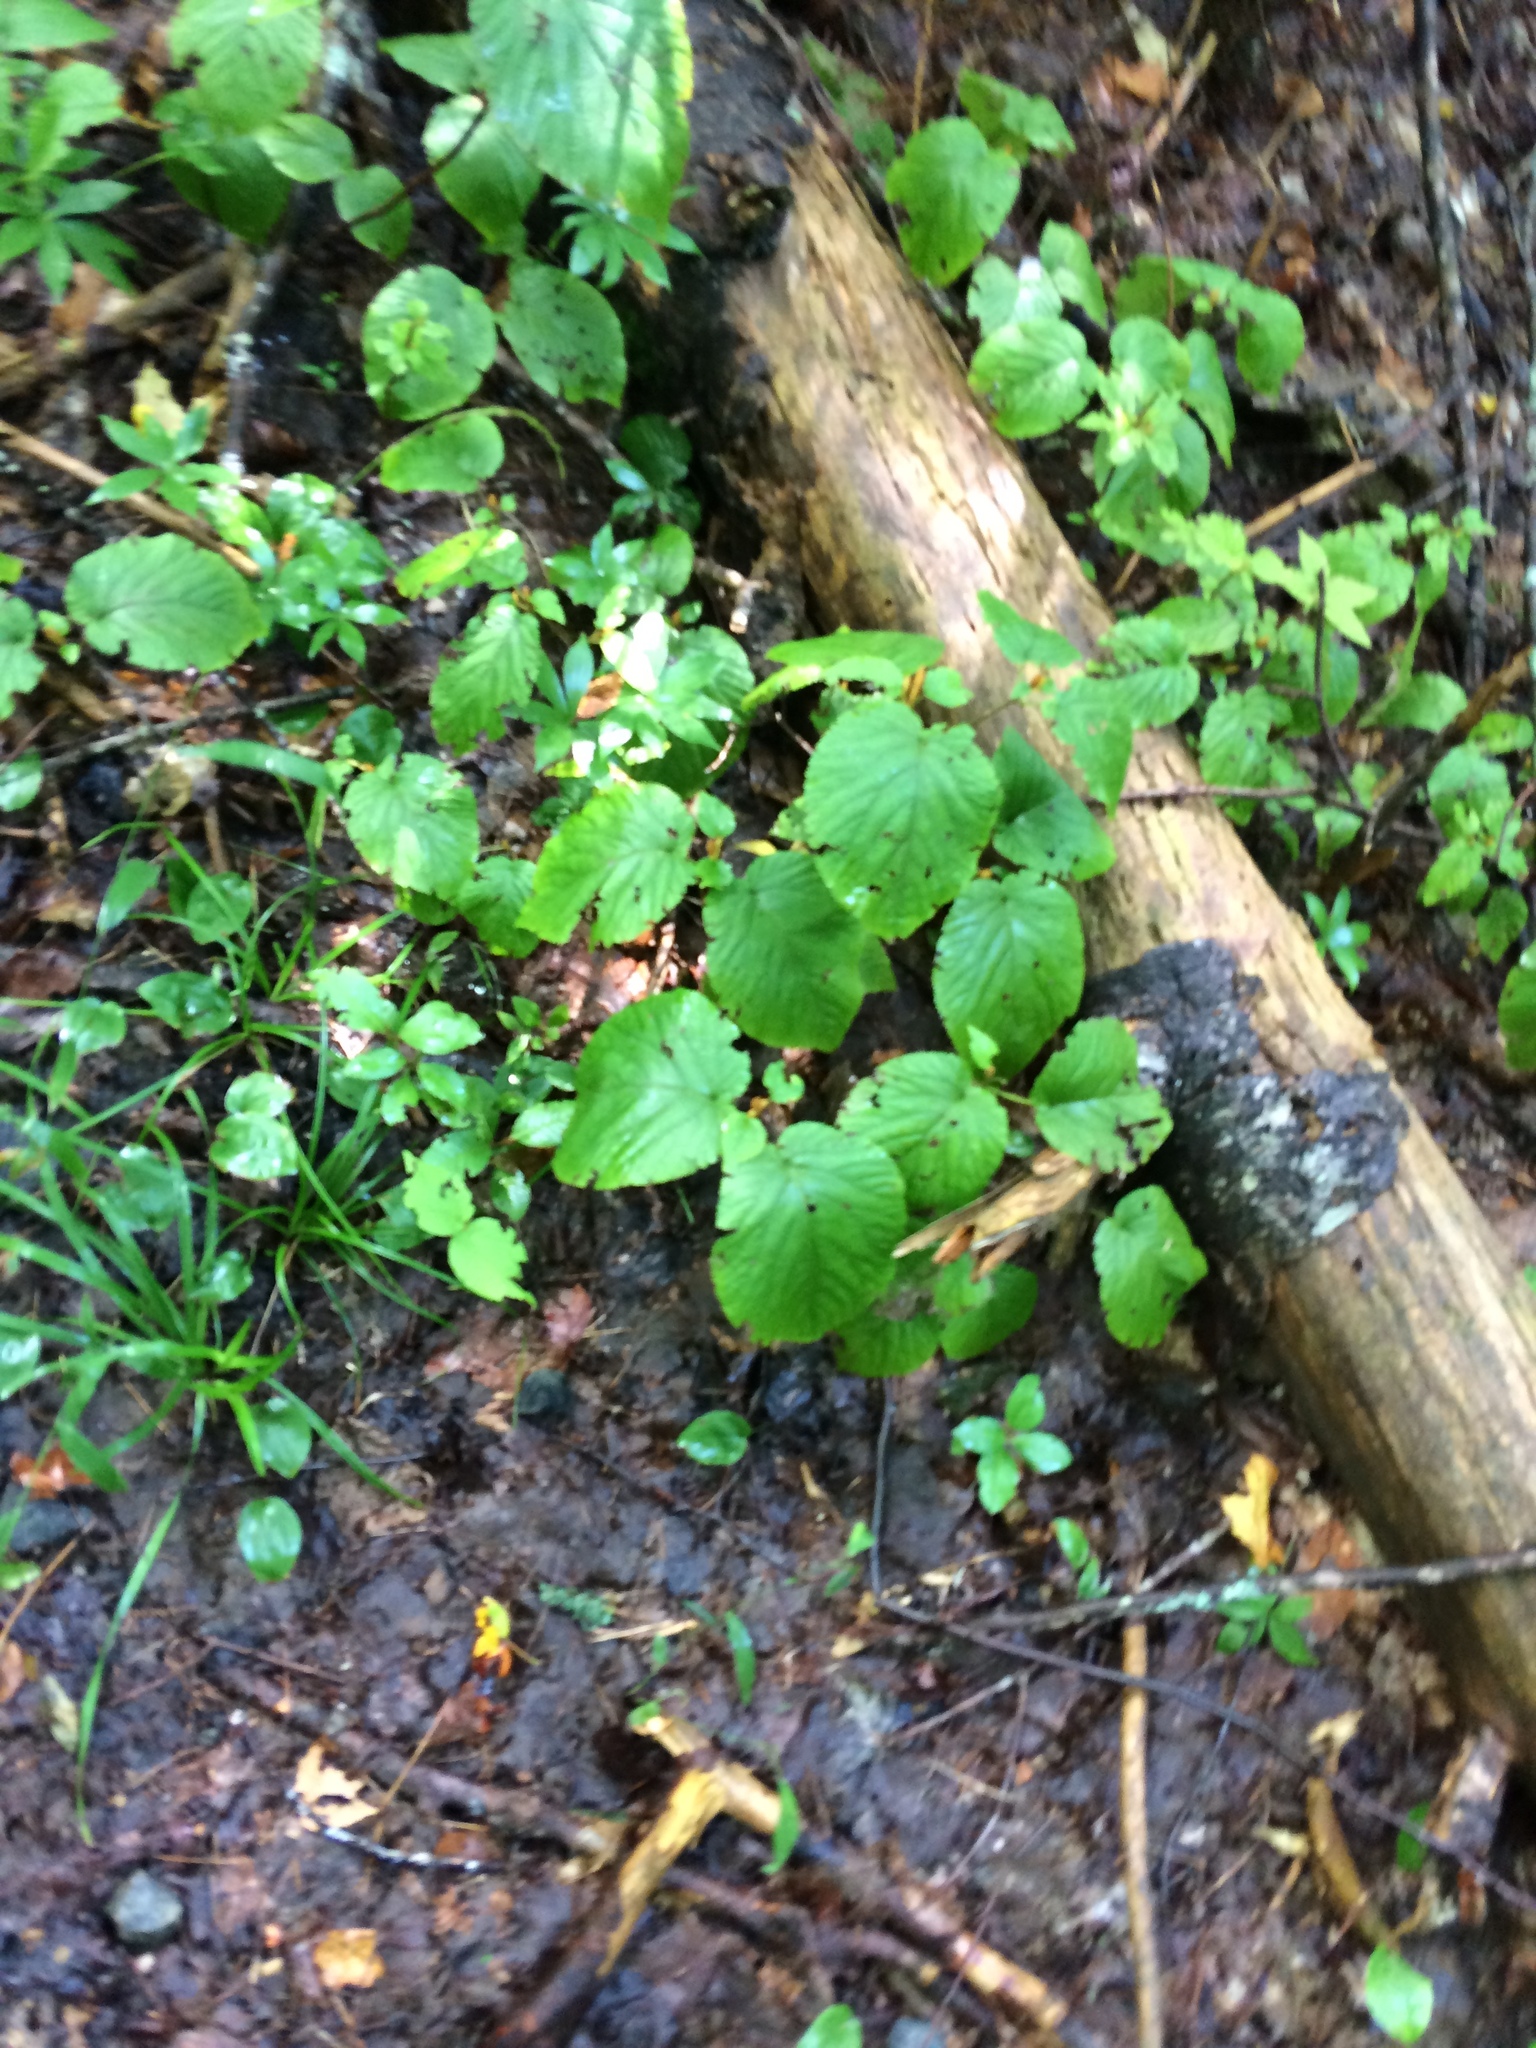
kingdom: Plantae
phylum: Tracheophyta
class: Magnoliopsida
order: Dipsacales
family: Viburnaceae
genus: Viburnum
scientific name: Viburnum lantanoides
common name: Hobblebush
